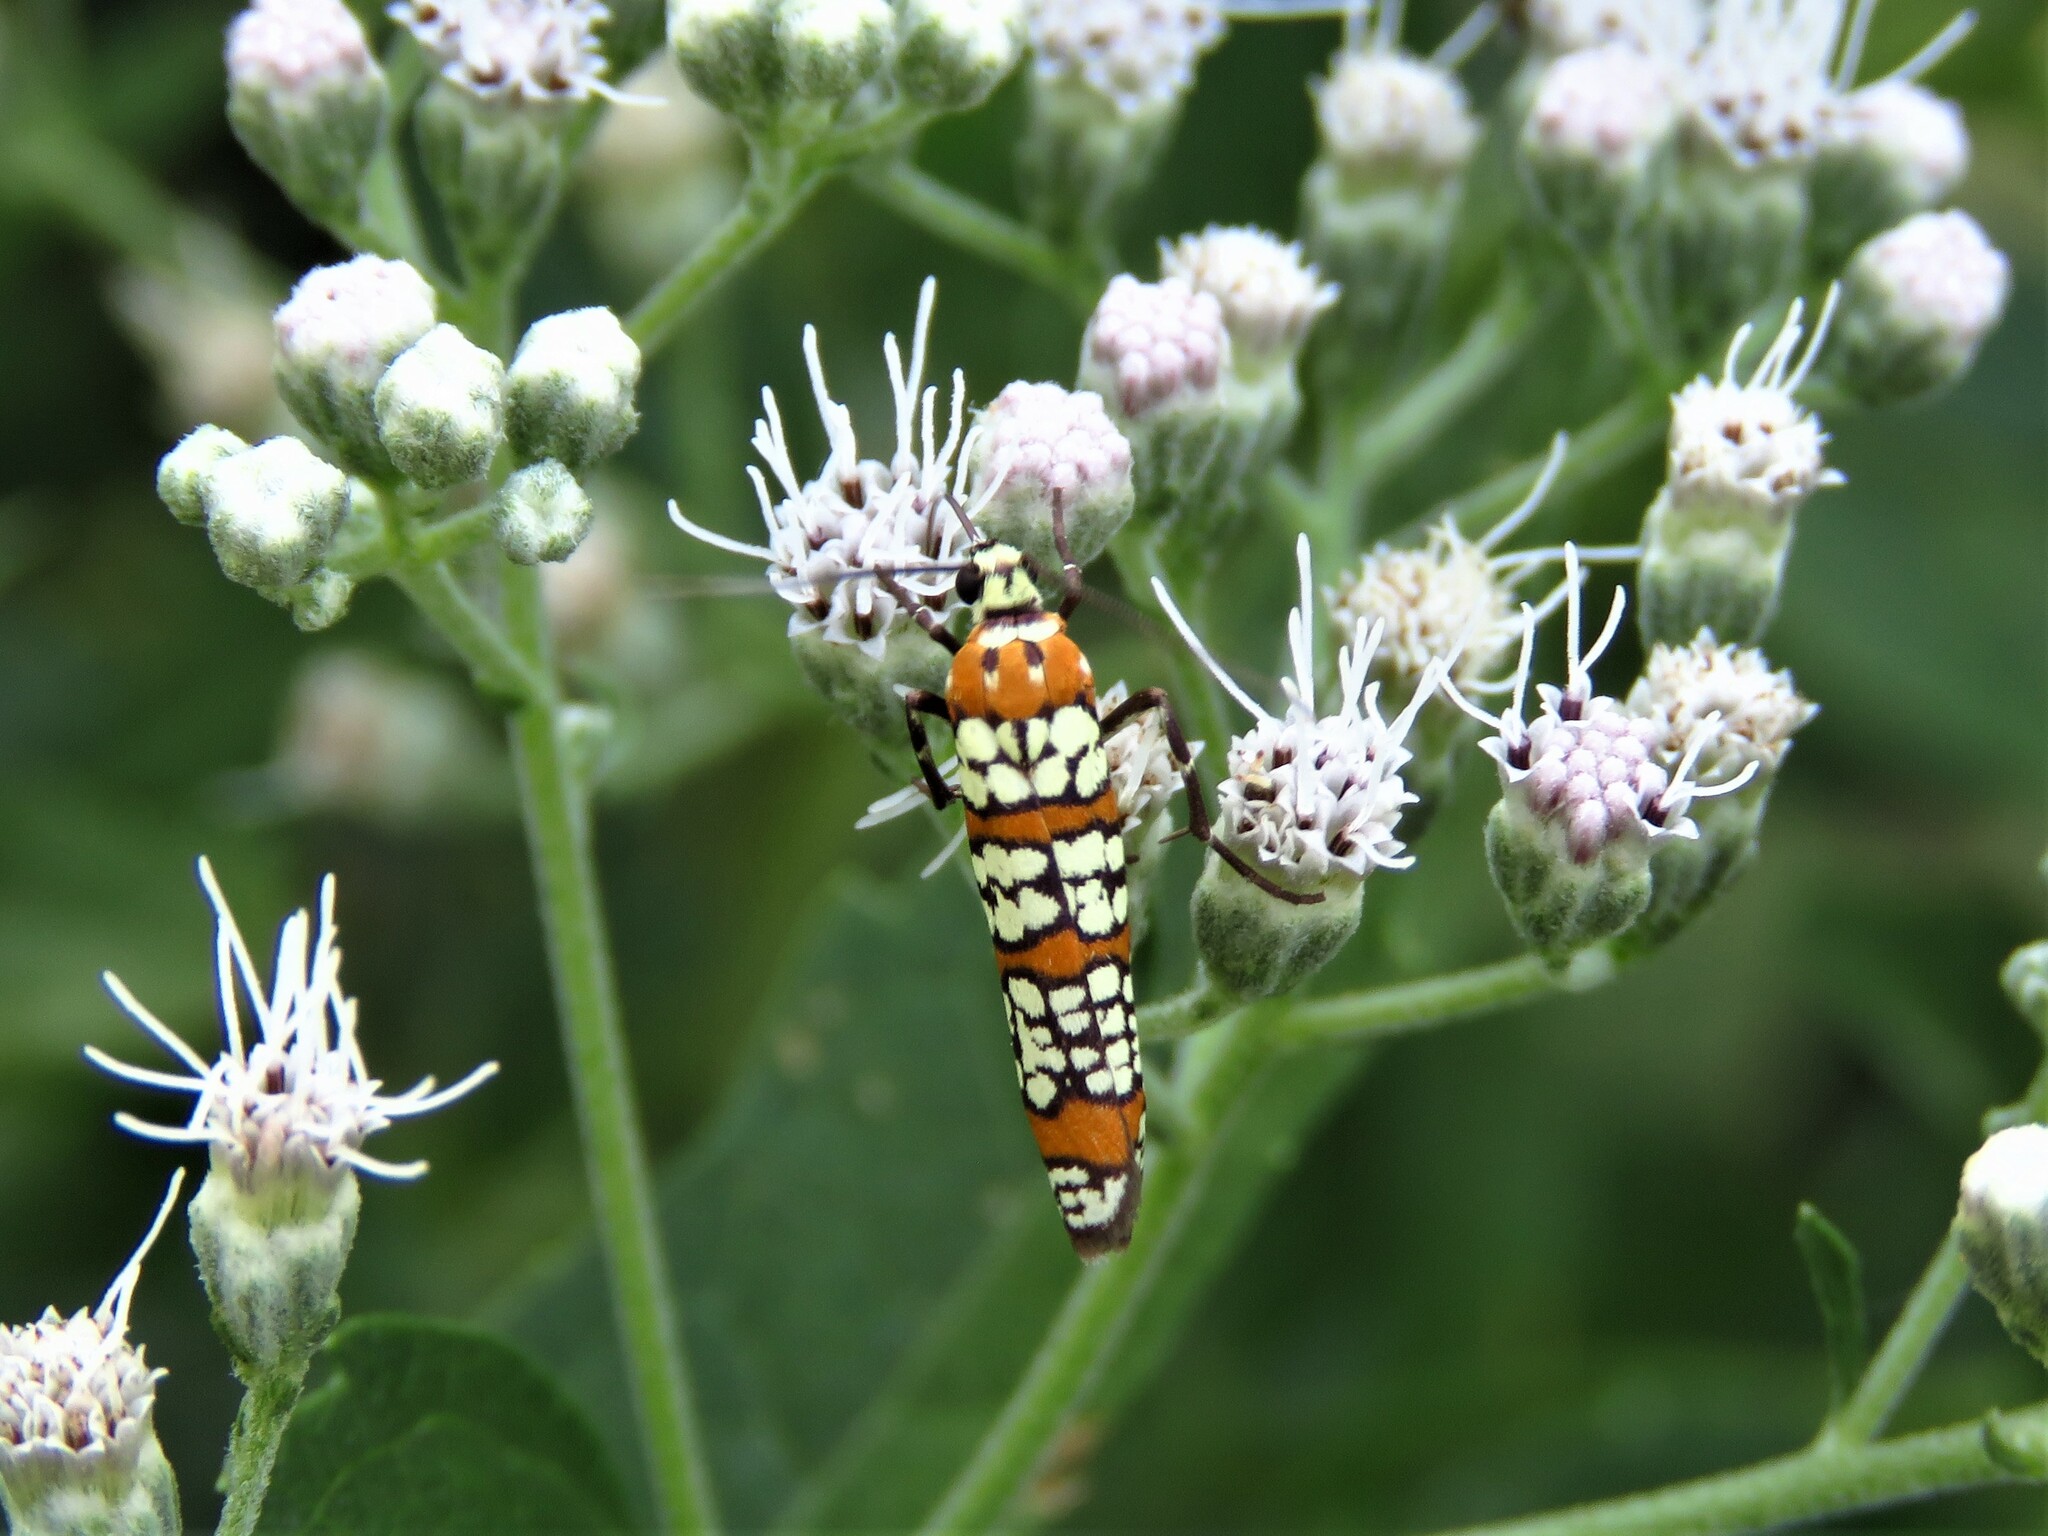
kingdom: Animalia
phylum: Arthropoda
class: Insecta
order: Lepidoptera
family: Attevidae
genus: Atteva
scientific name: Atteva punctella
